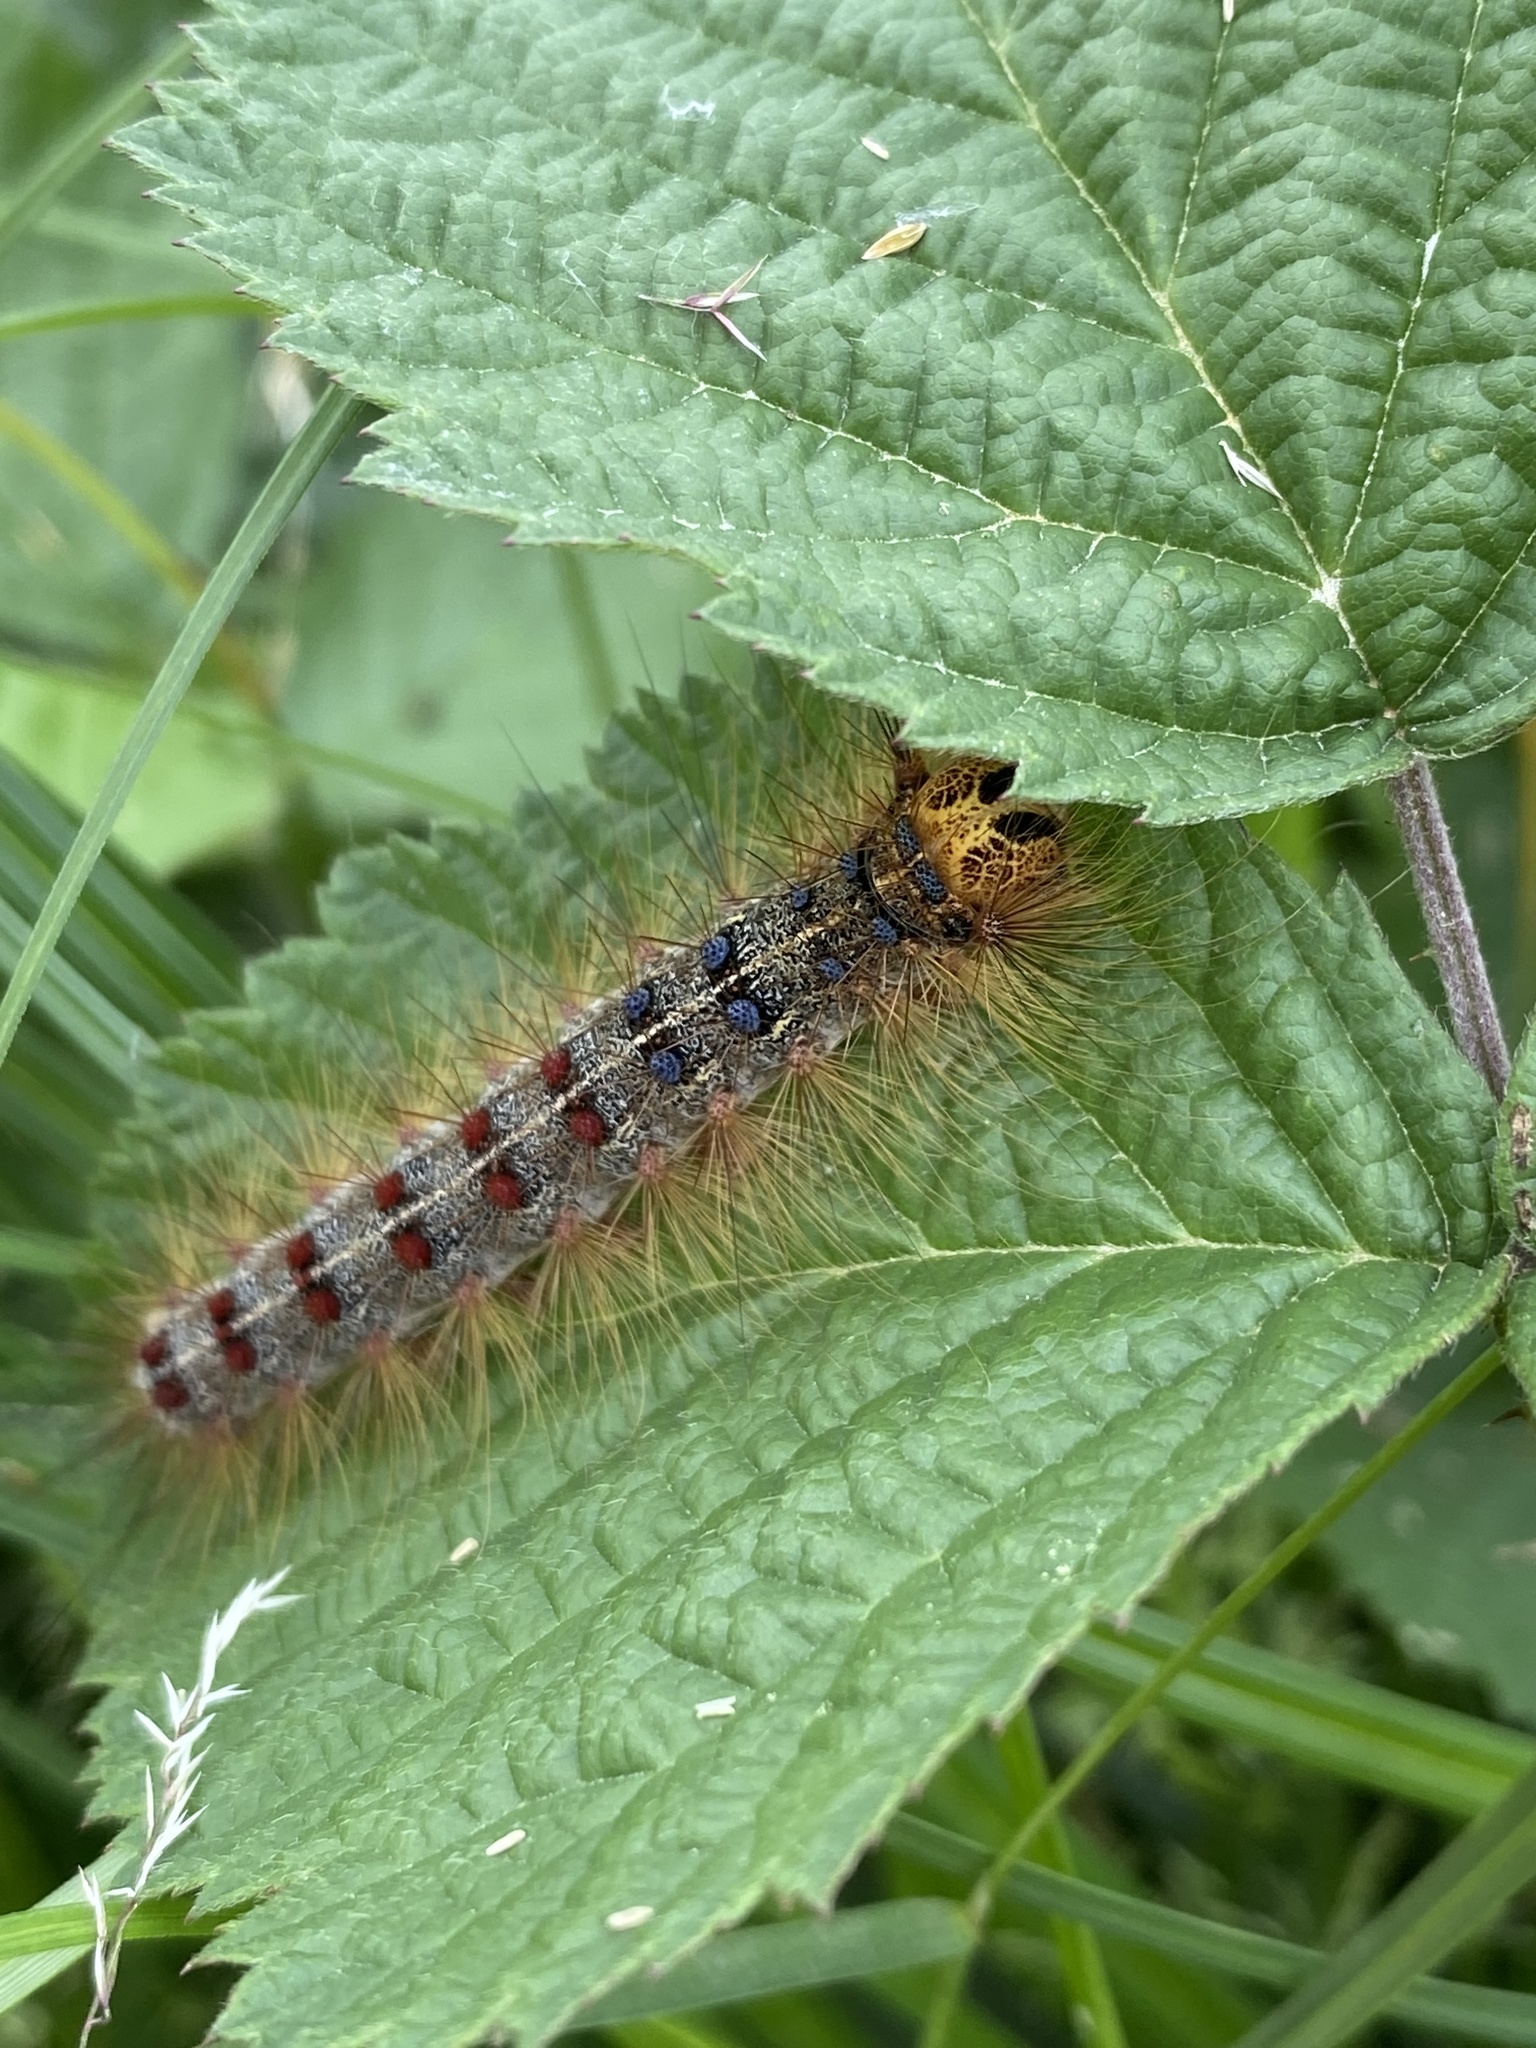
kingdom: Animalia
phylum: Arthropoda
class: Insecta
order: Lepidoptera
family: Erebidae
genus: Lymantria
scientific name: Lymantria dispar
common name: Gypsy moth
